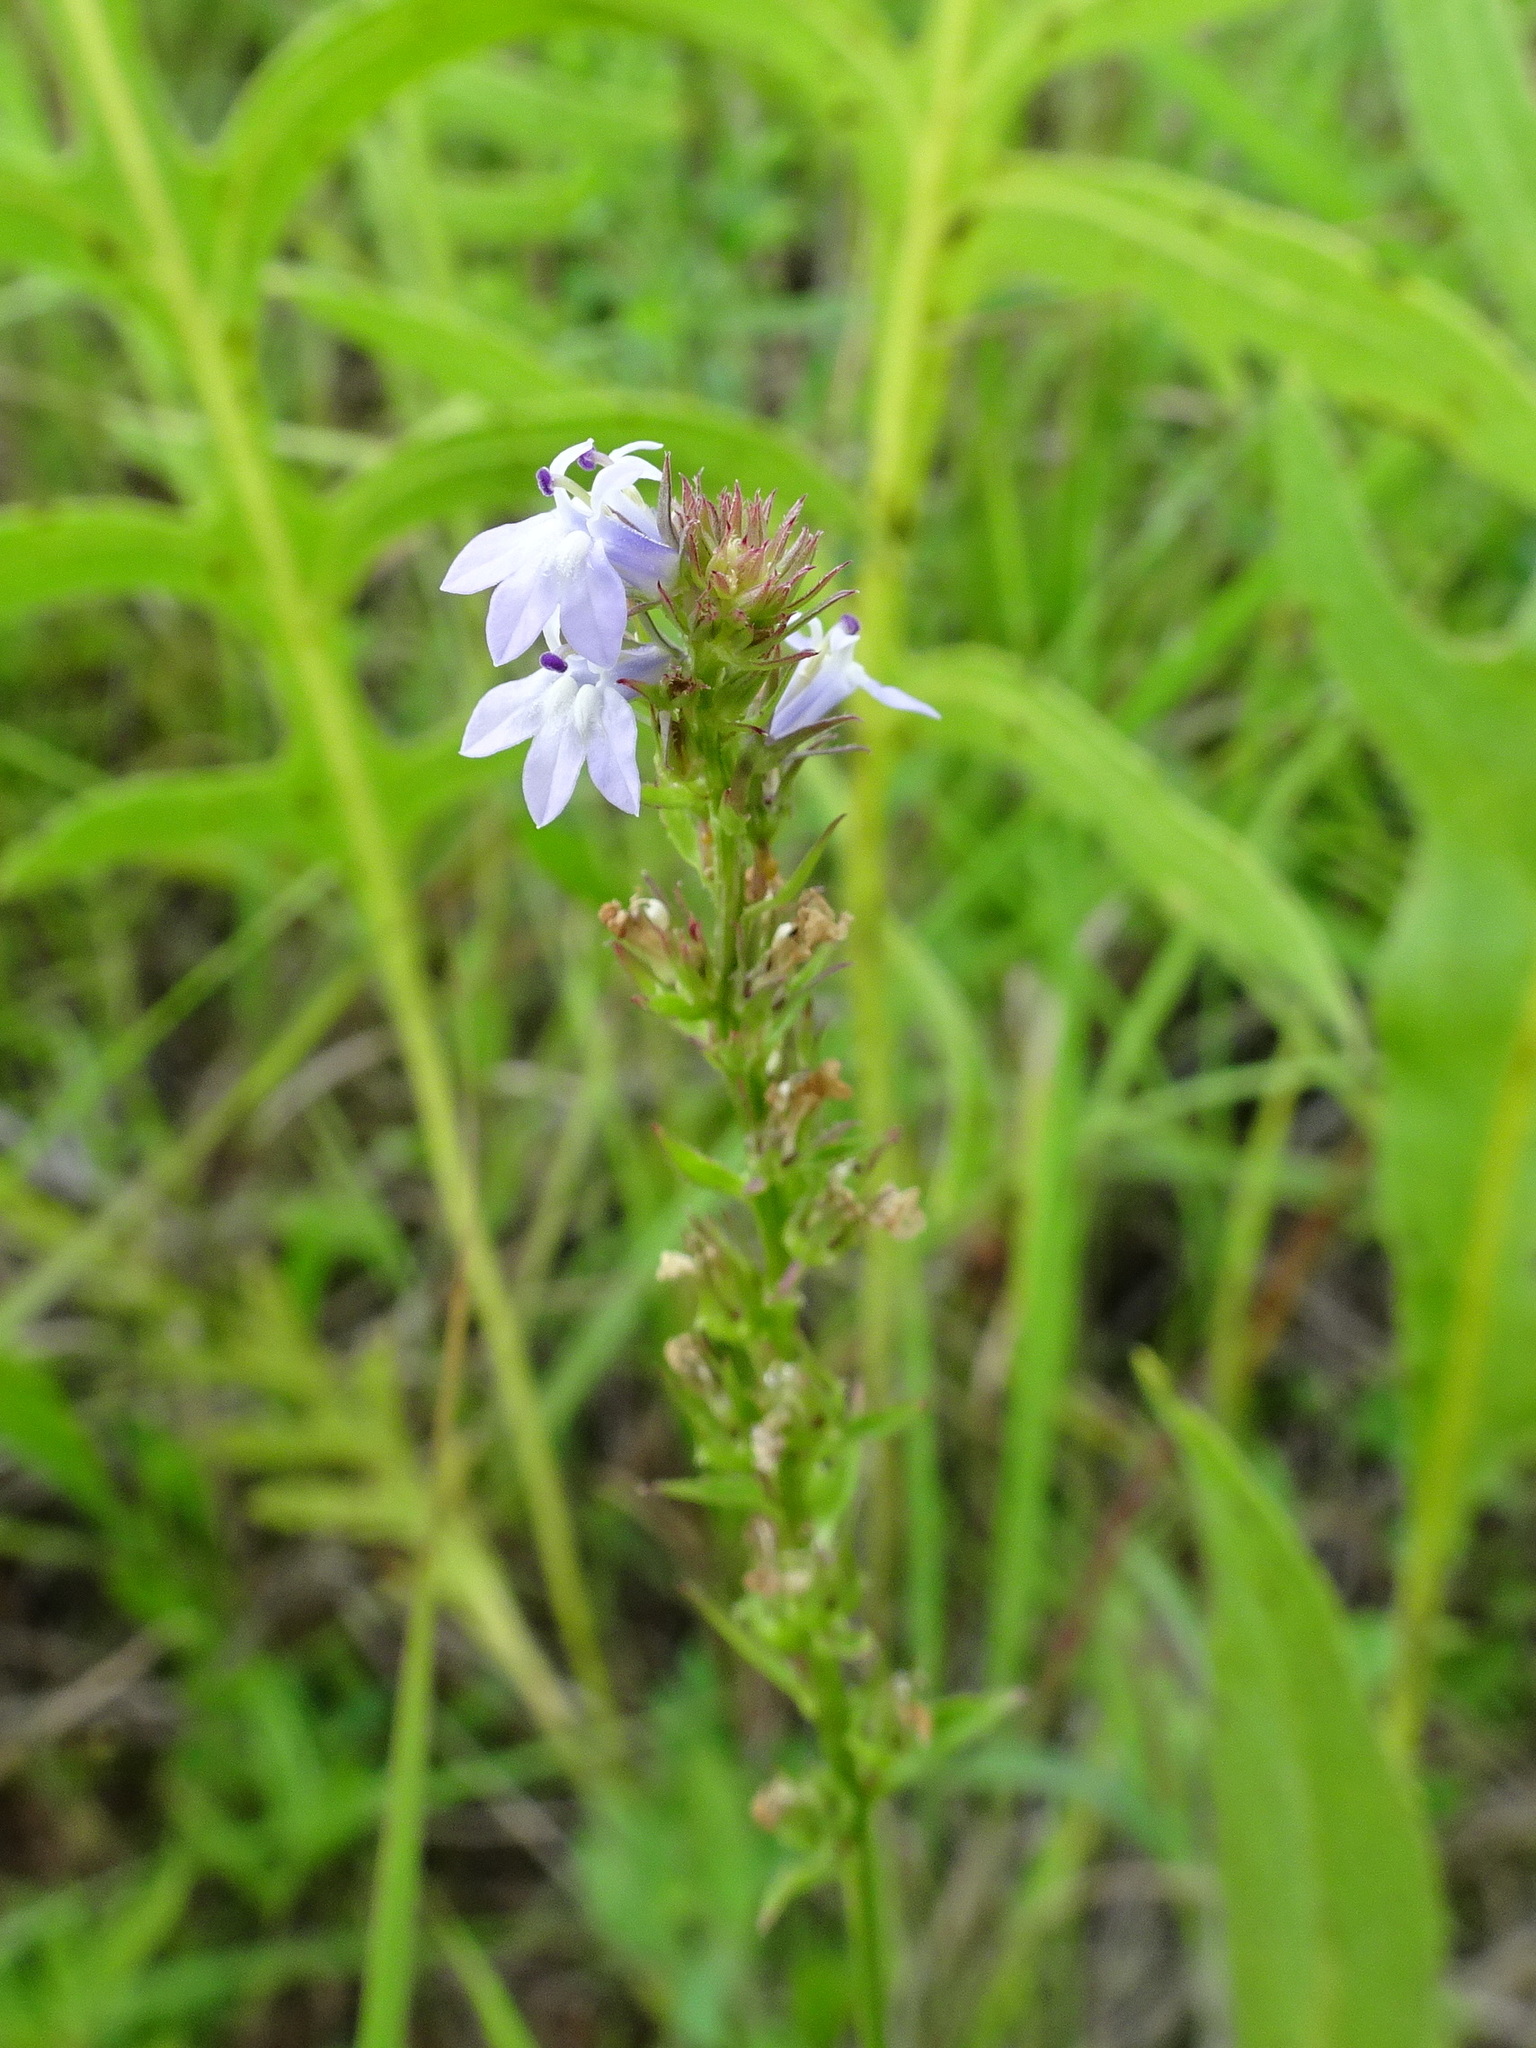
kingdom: Plantae
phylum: Tracheophyta
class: Magnoliopsida
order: Asterales
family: Campanulaceae
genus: Lobelia
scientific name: Lobelia spicata
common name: Pale-spike lobelia
